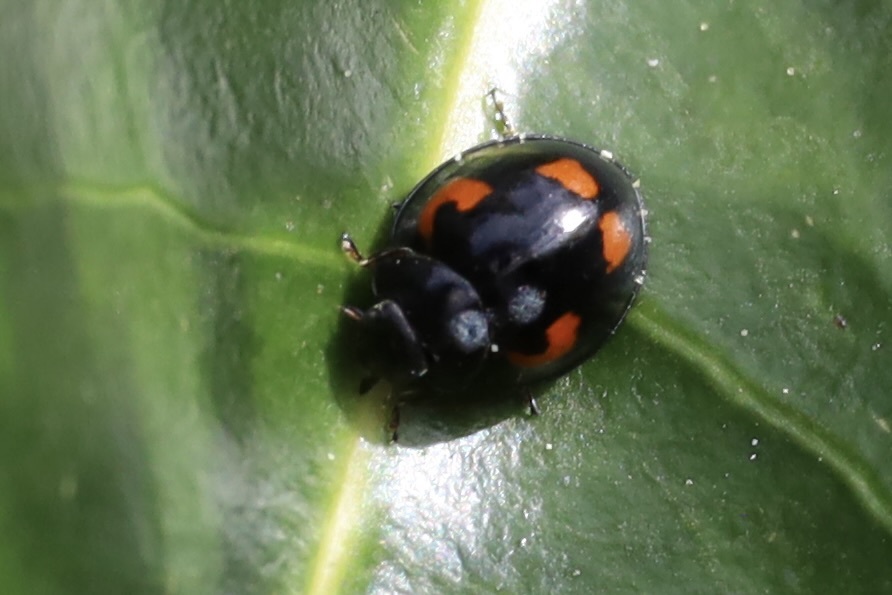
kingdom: Animalia
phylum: Arthropoda
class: Insecta
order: Coleoptera
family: Coccinellidae
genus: Brumus
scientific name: Brumus quadripustulatus
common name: Ladybird beetle
